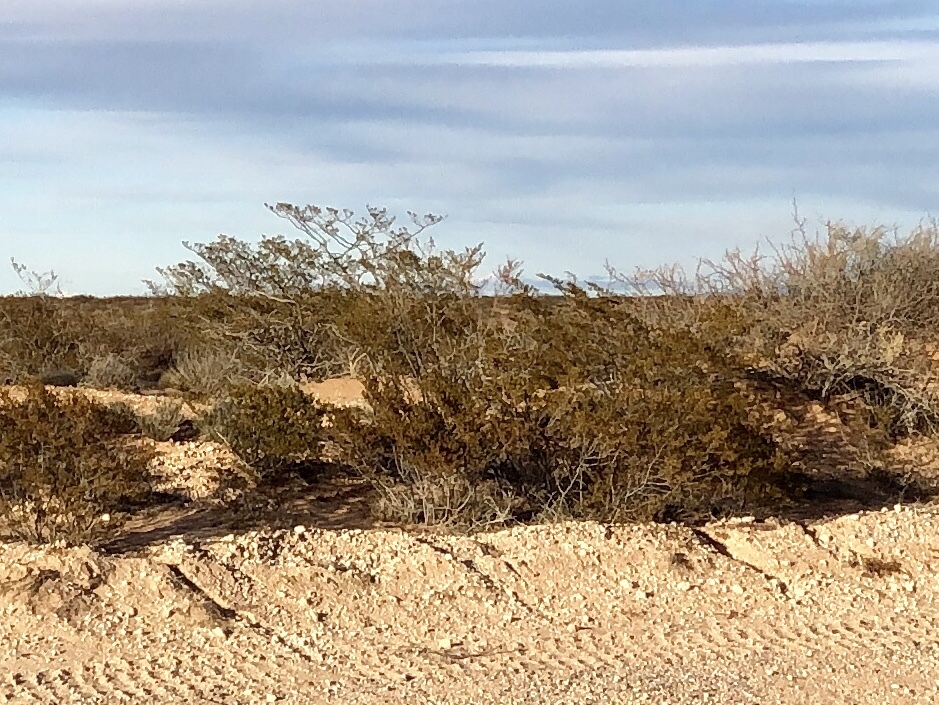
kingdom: Plantae
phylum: Tracheophyta
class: Magnoliopsida
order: Zygophyllales
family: Zygophyllaceae
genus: Larrea
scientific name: Larrea tridentata
